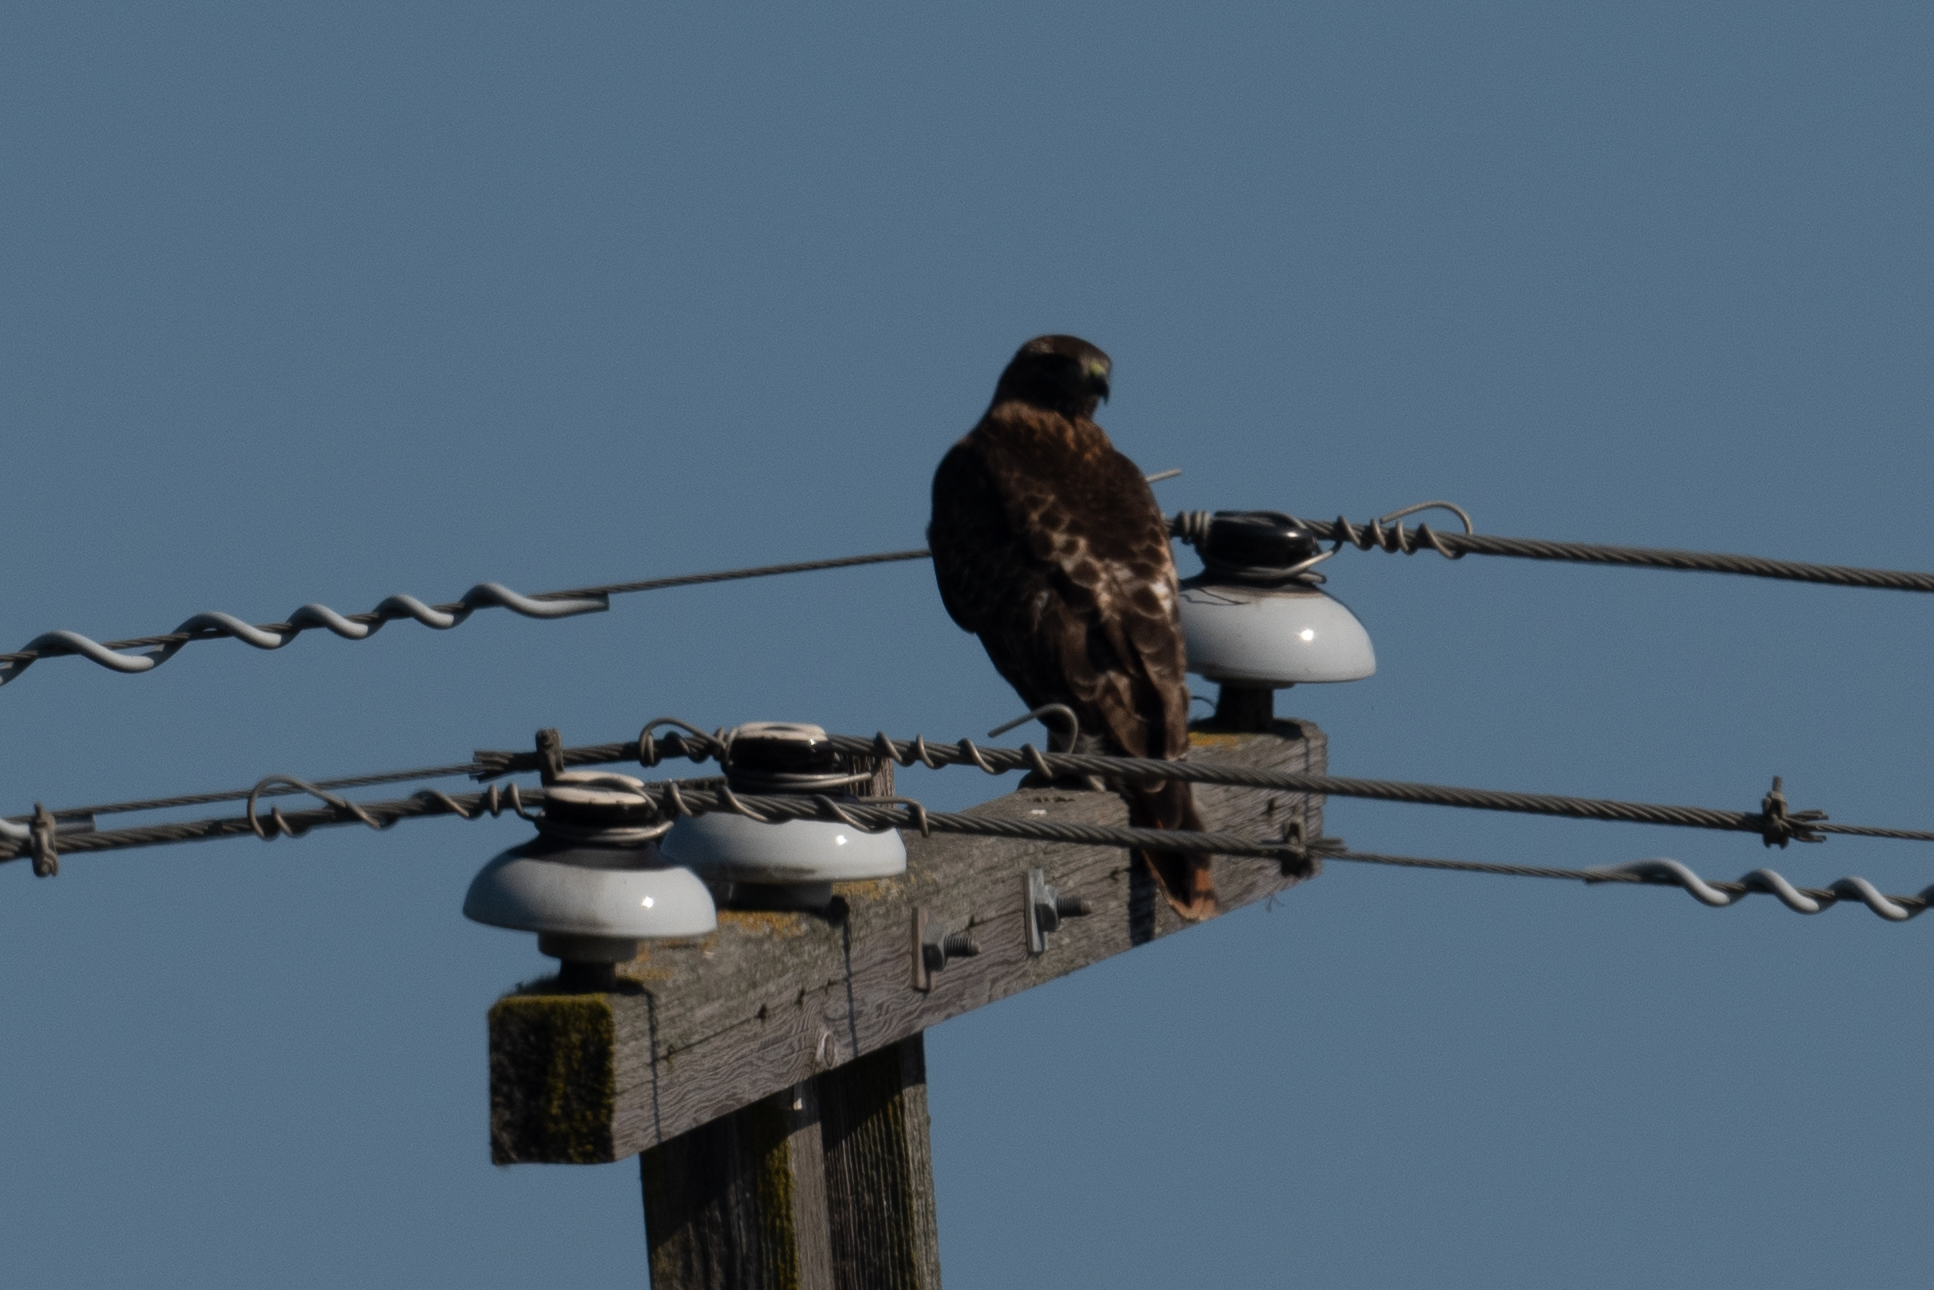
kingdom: Animalia
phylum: Chordata
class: Aves
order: Accipitriformes
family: Accipitridae
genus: Buteo
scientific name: Buteo jamaicensis
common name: Red-tailed hawk
